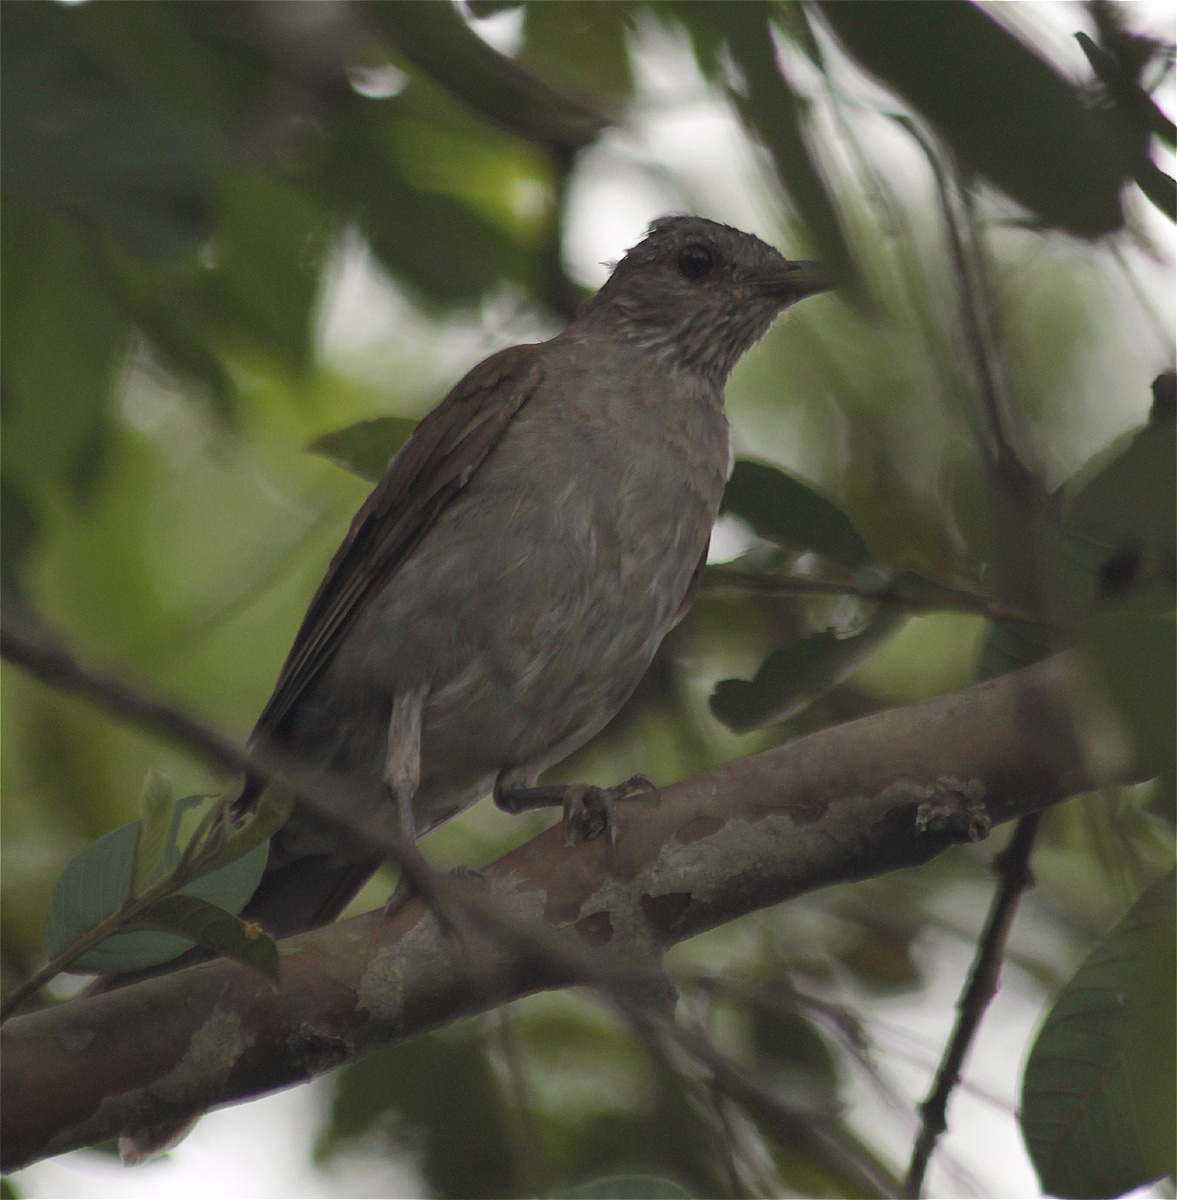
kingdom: Animalia
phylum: Chordata
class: Aves
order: Passeriformes
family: Turdidae
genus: Turdus
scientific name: Turdus leucomelas
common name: Pale-breasted thrush
